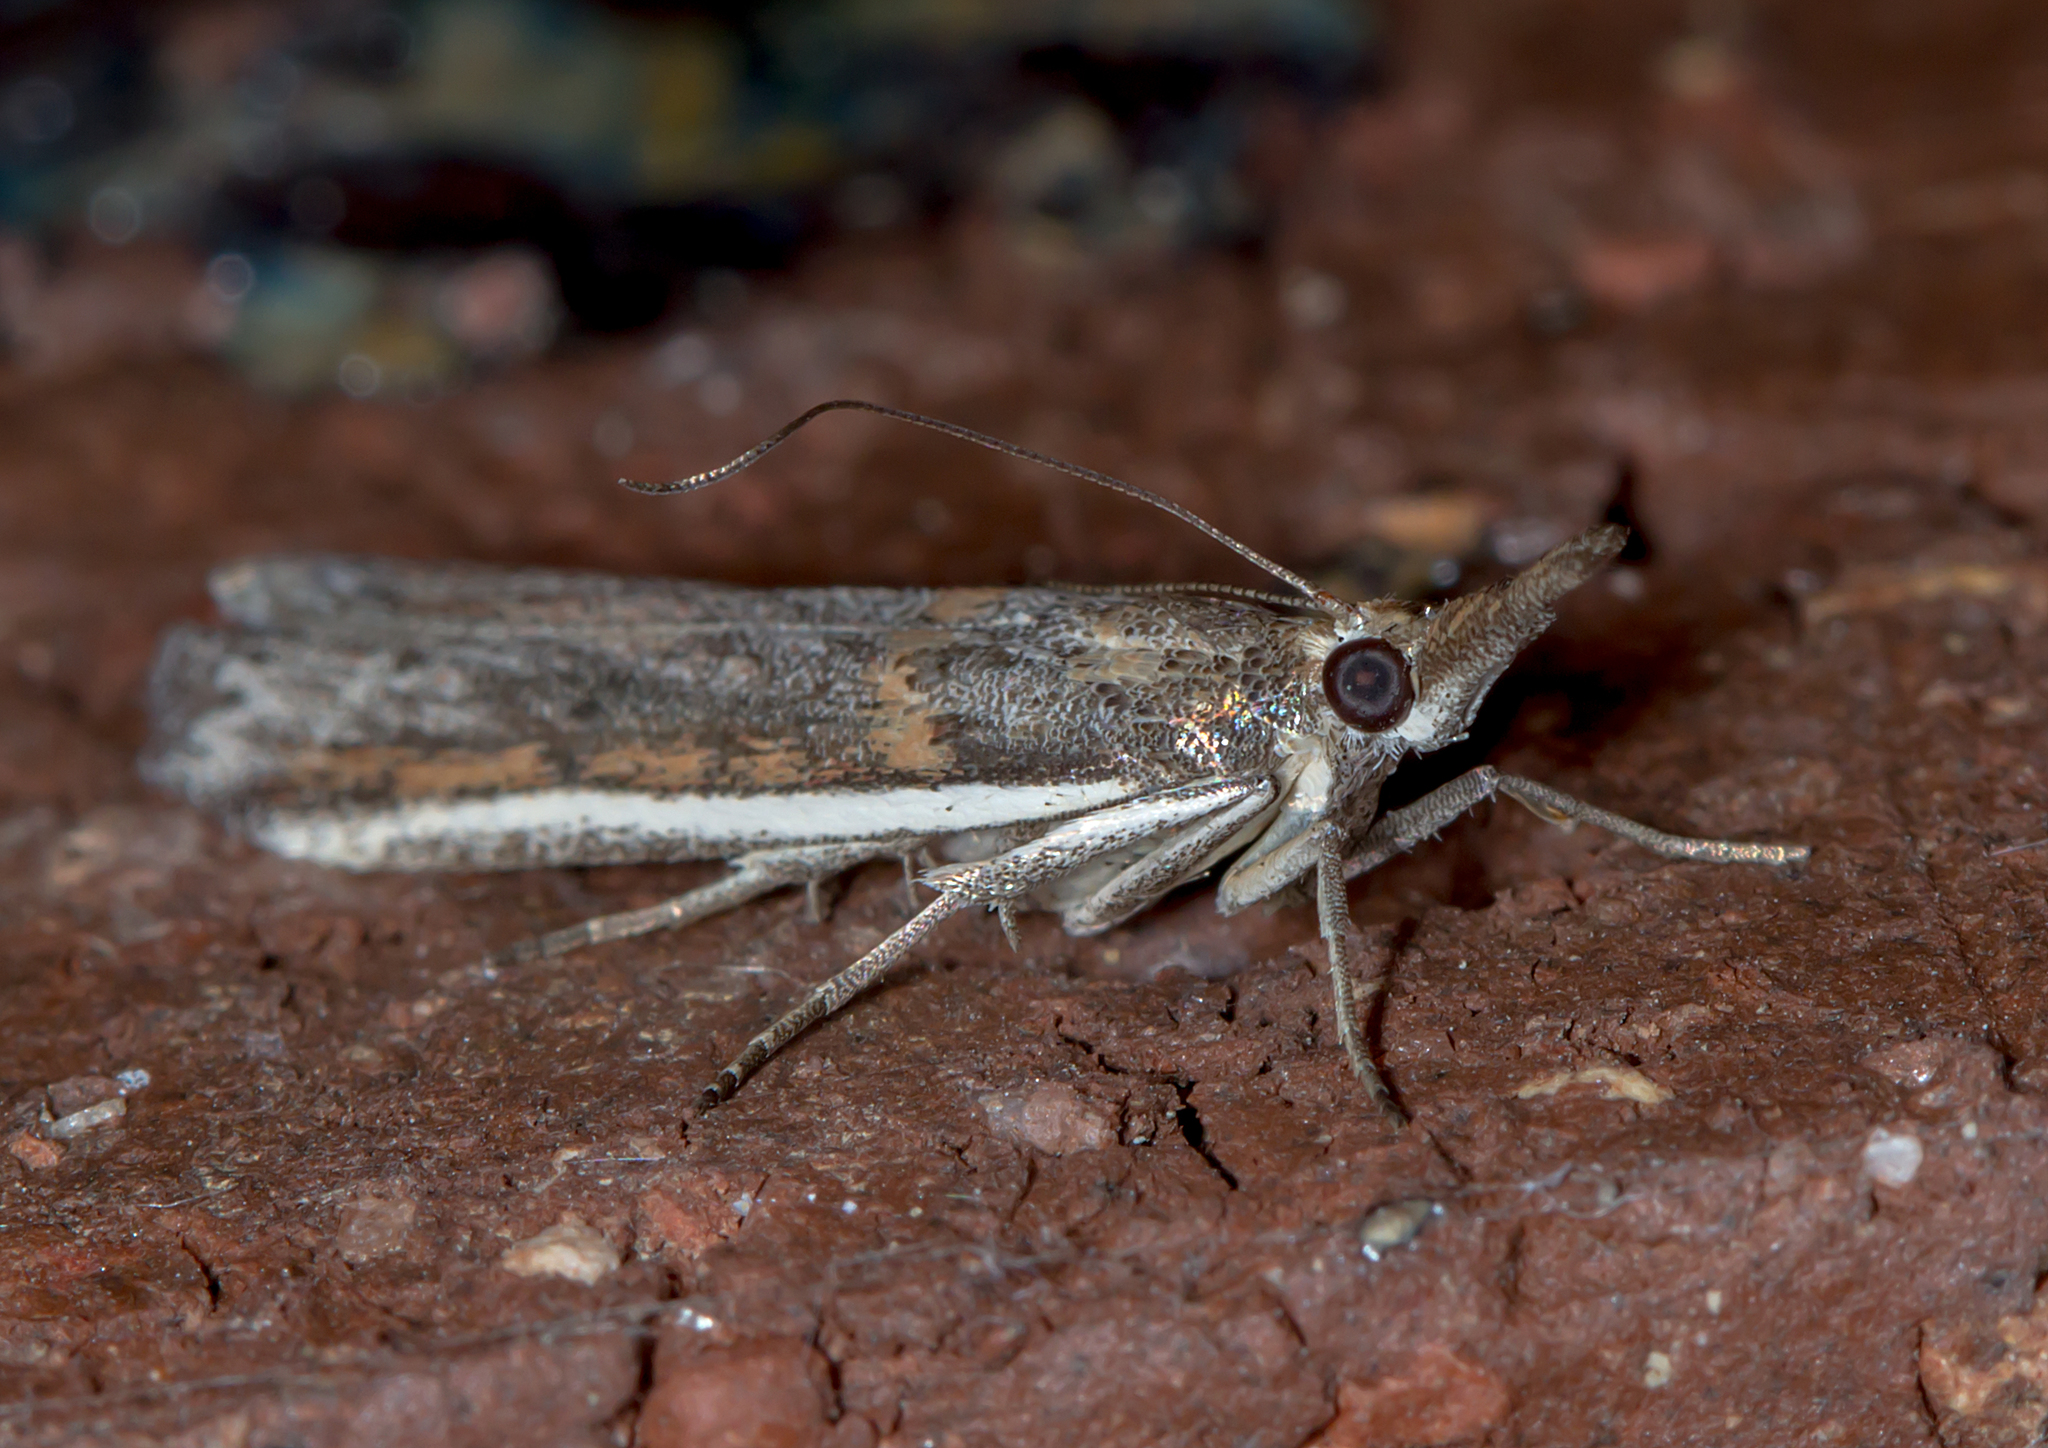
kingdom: Animalia
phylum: Arthropoda
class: Insecta
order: Lepidoptera
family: Pyralidae
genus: Etiella
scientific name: Etiella behrii
